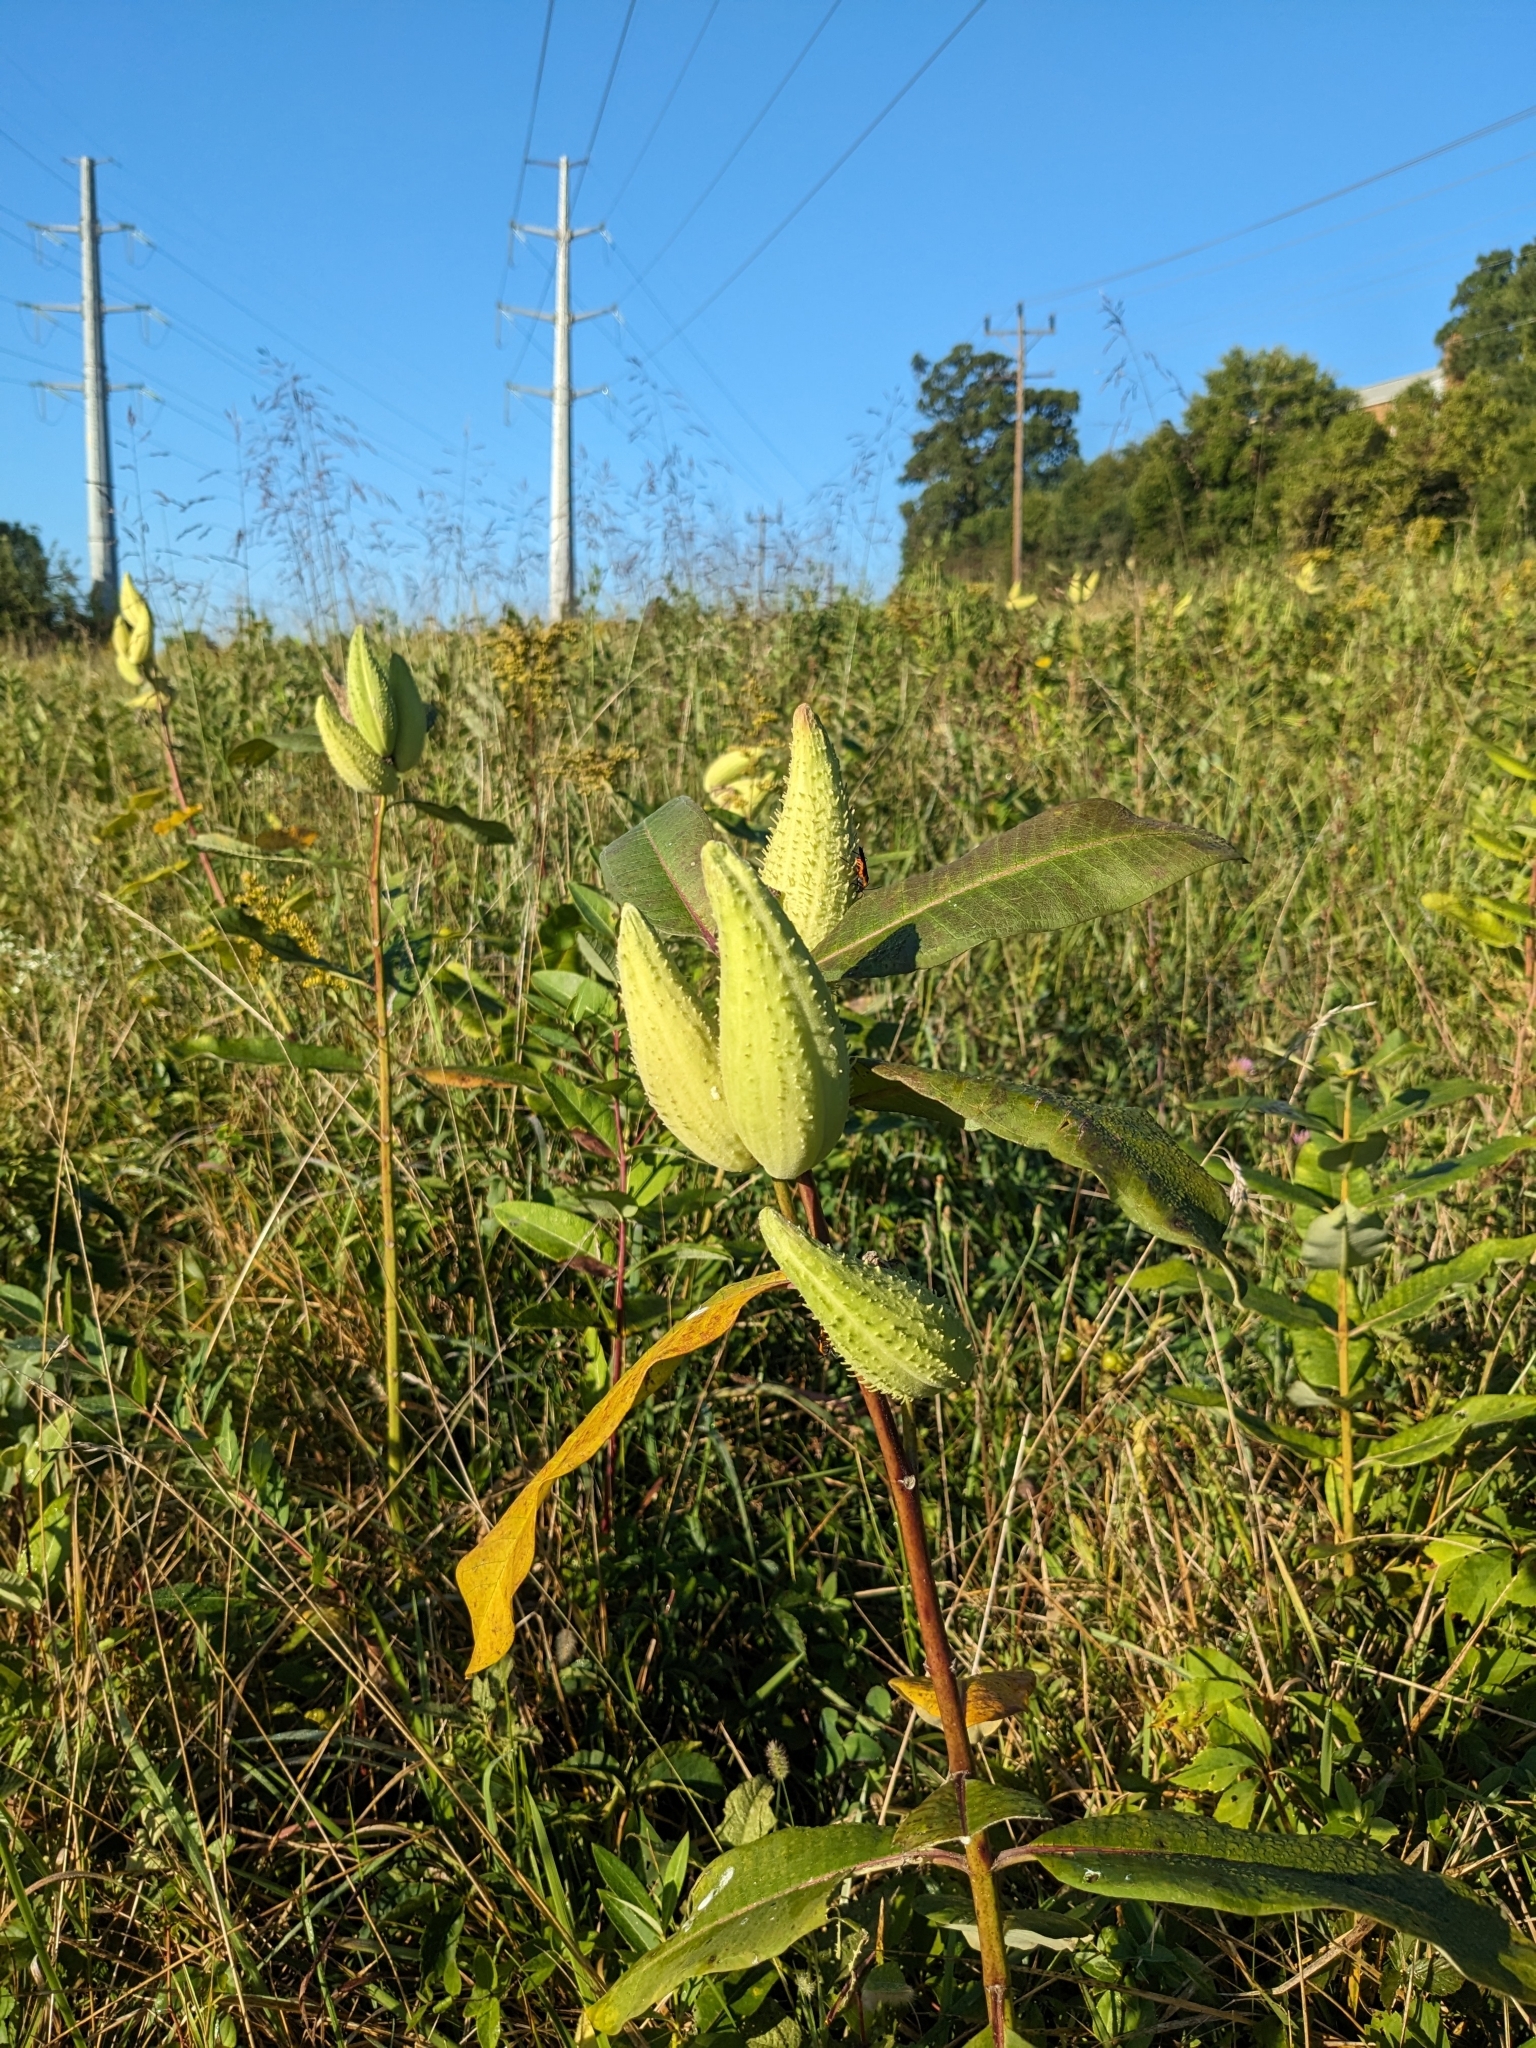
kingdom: Plantae
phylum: Tracheophyta
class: Magnoliopsida
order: Gentianales
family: Apocynaceae
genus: Asclepias
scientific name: Asclepias syriaca
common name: Common milkweed
